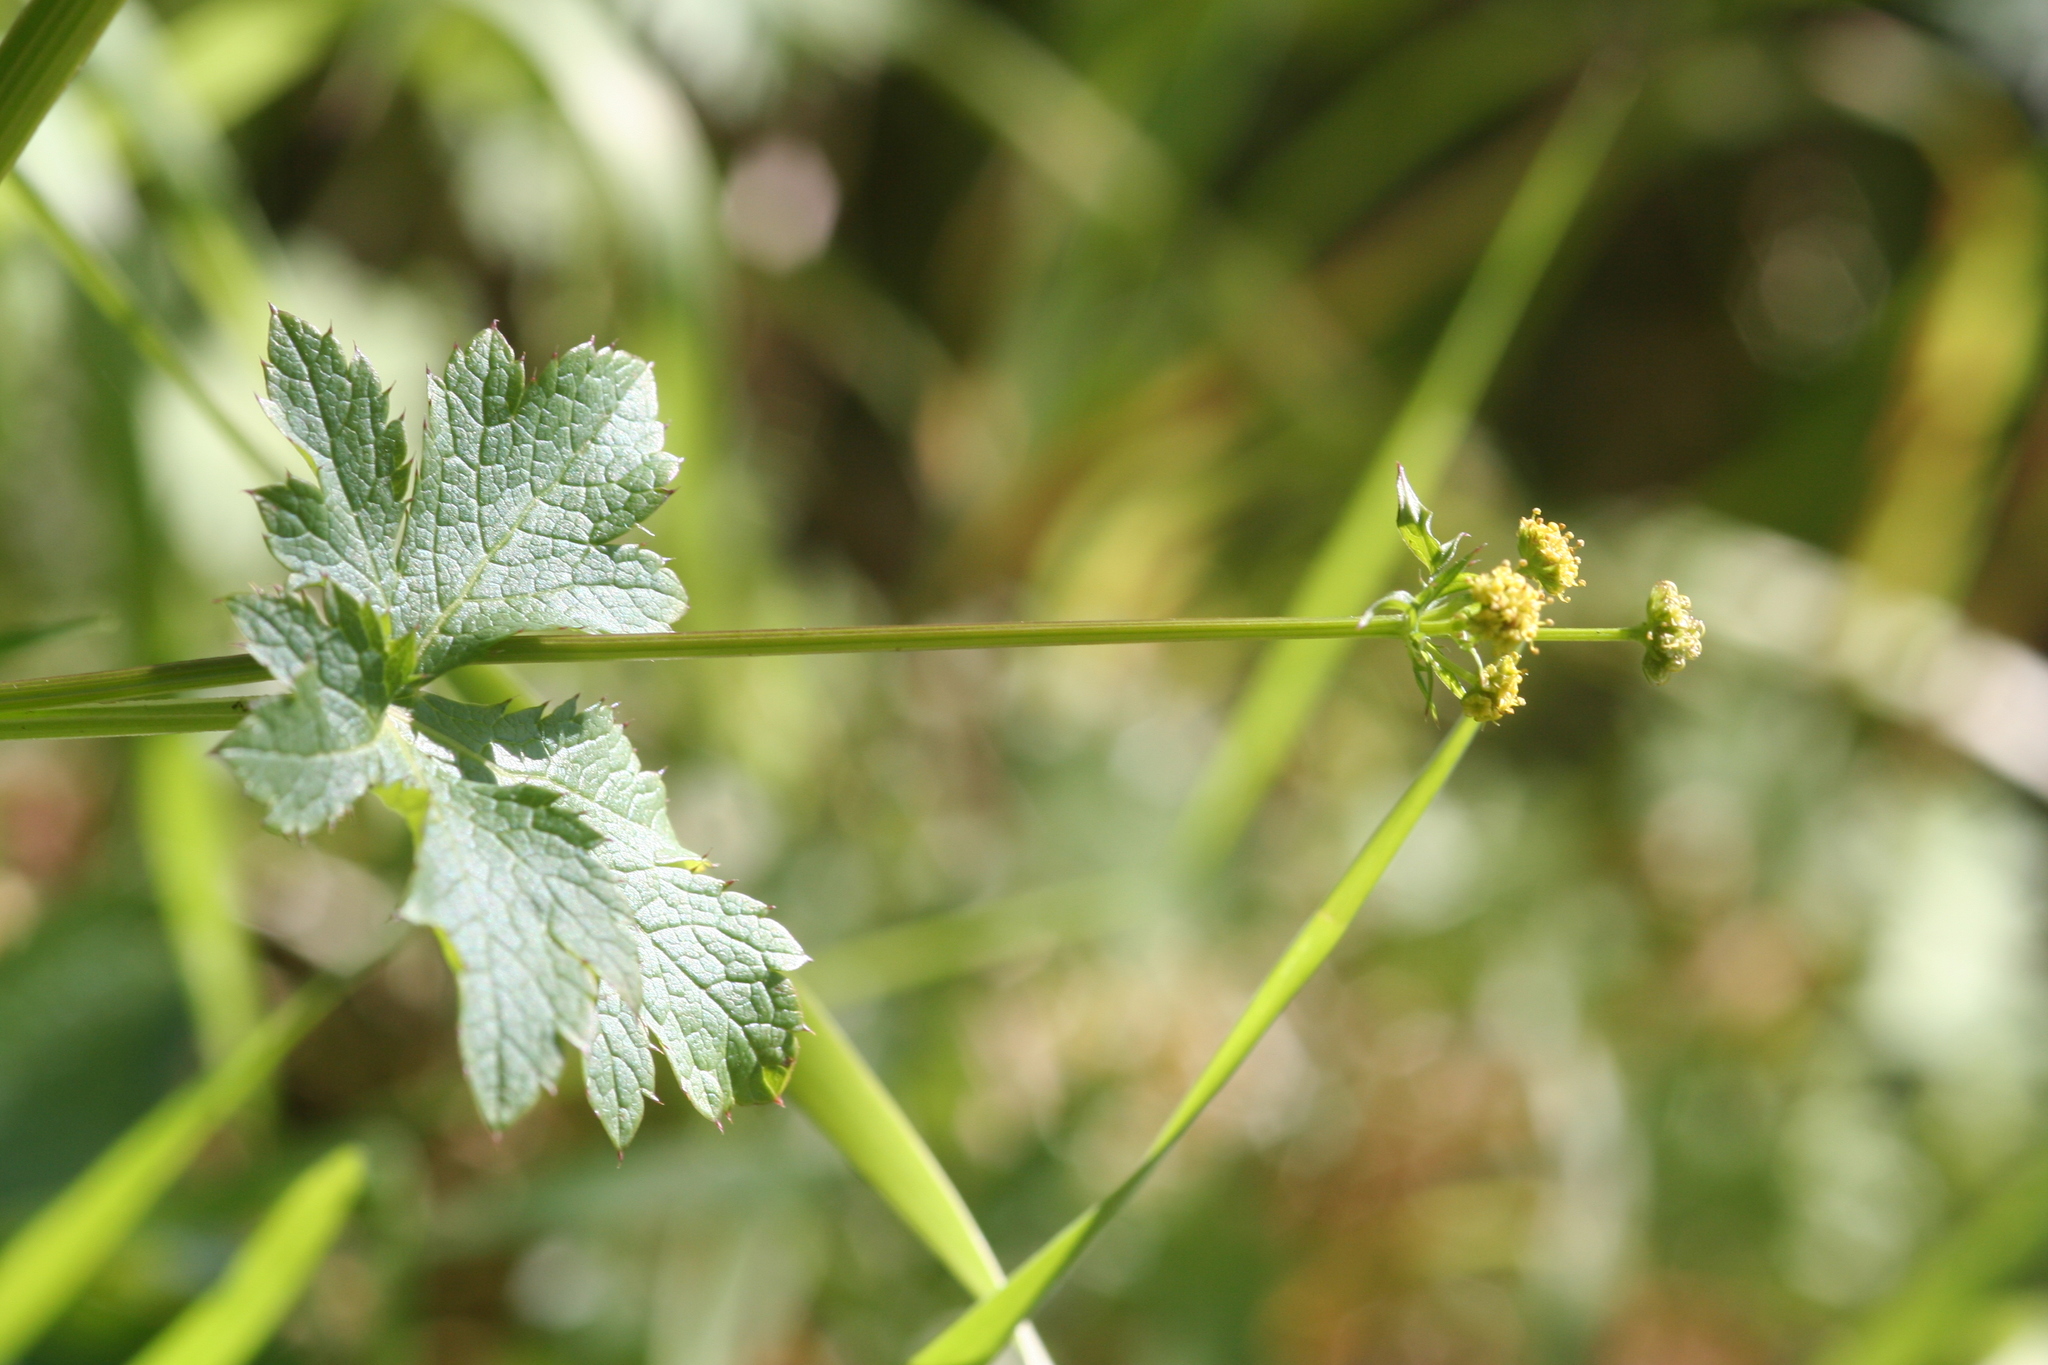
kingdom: Plantae
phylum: Tracheophyta
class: Magnoliopsida
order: Apiales
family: Apiaceae
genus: Sanicula
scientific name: Sanicula crassicaulis
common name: Western snakeroot
